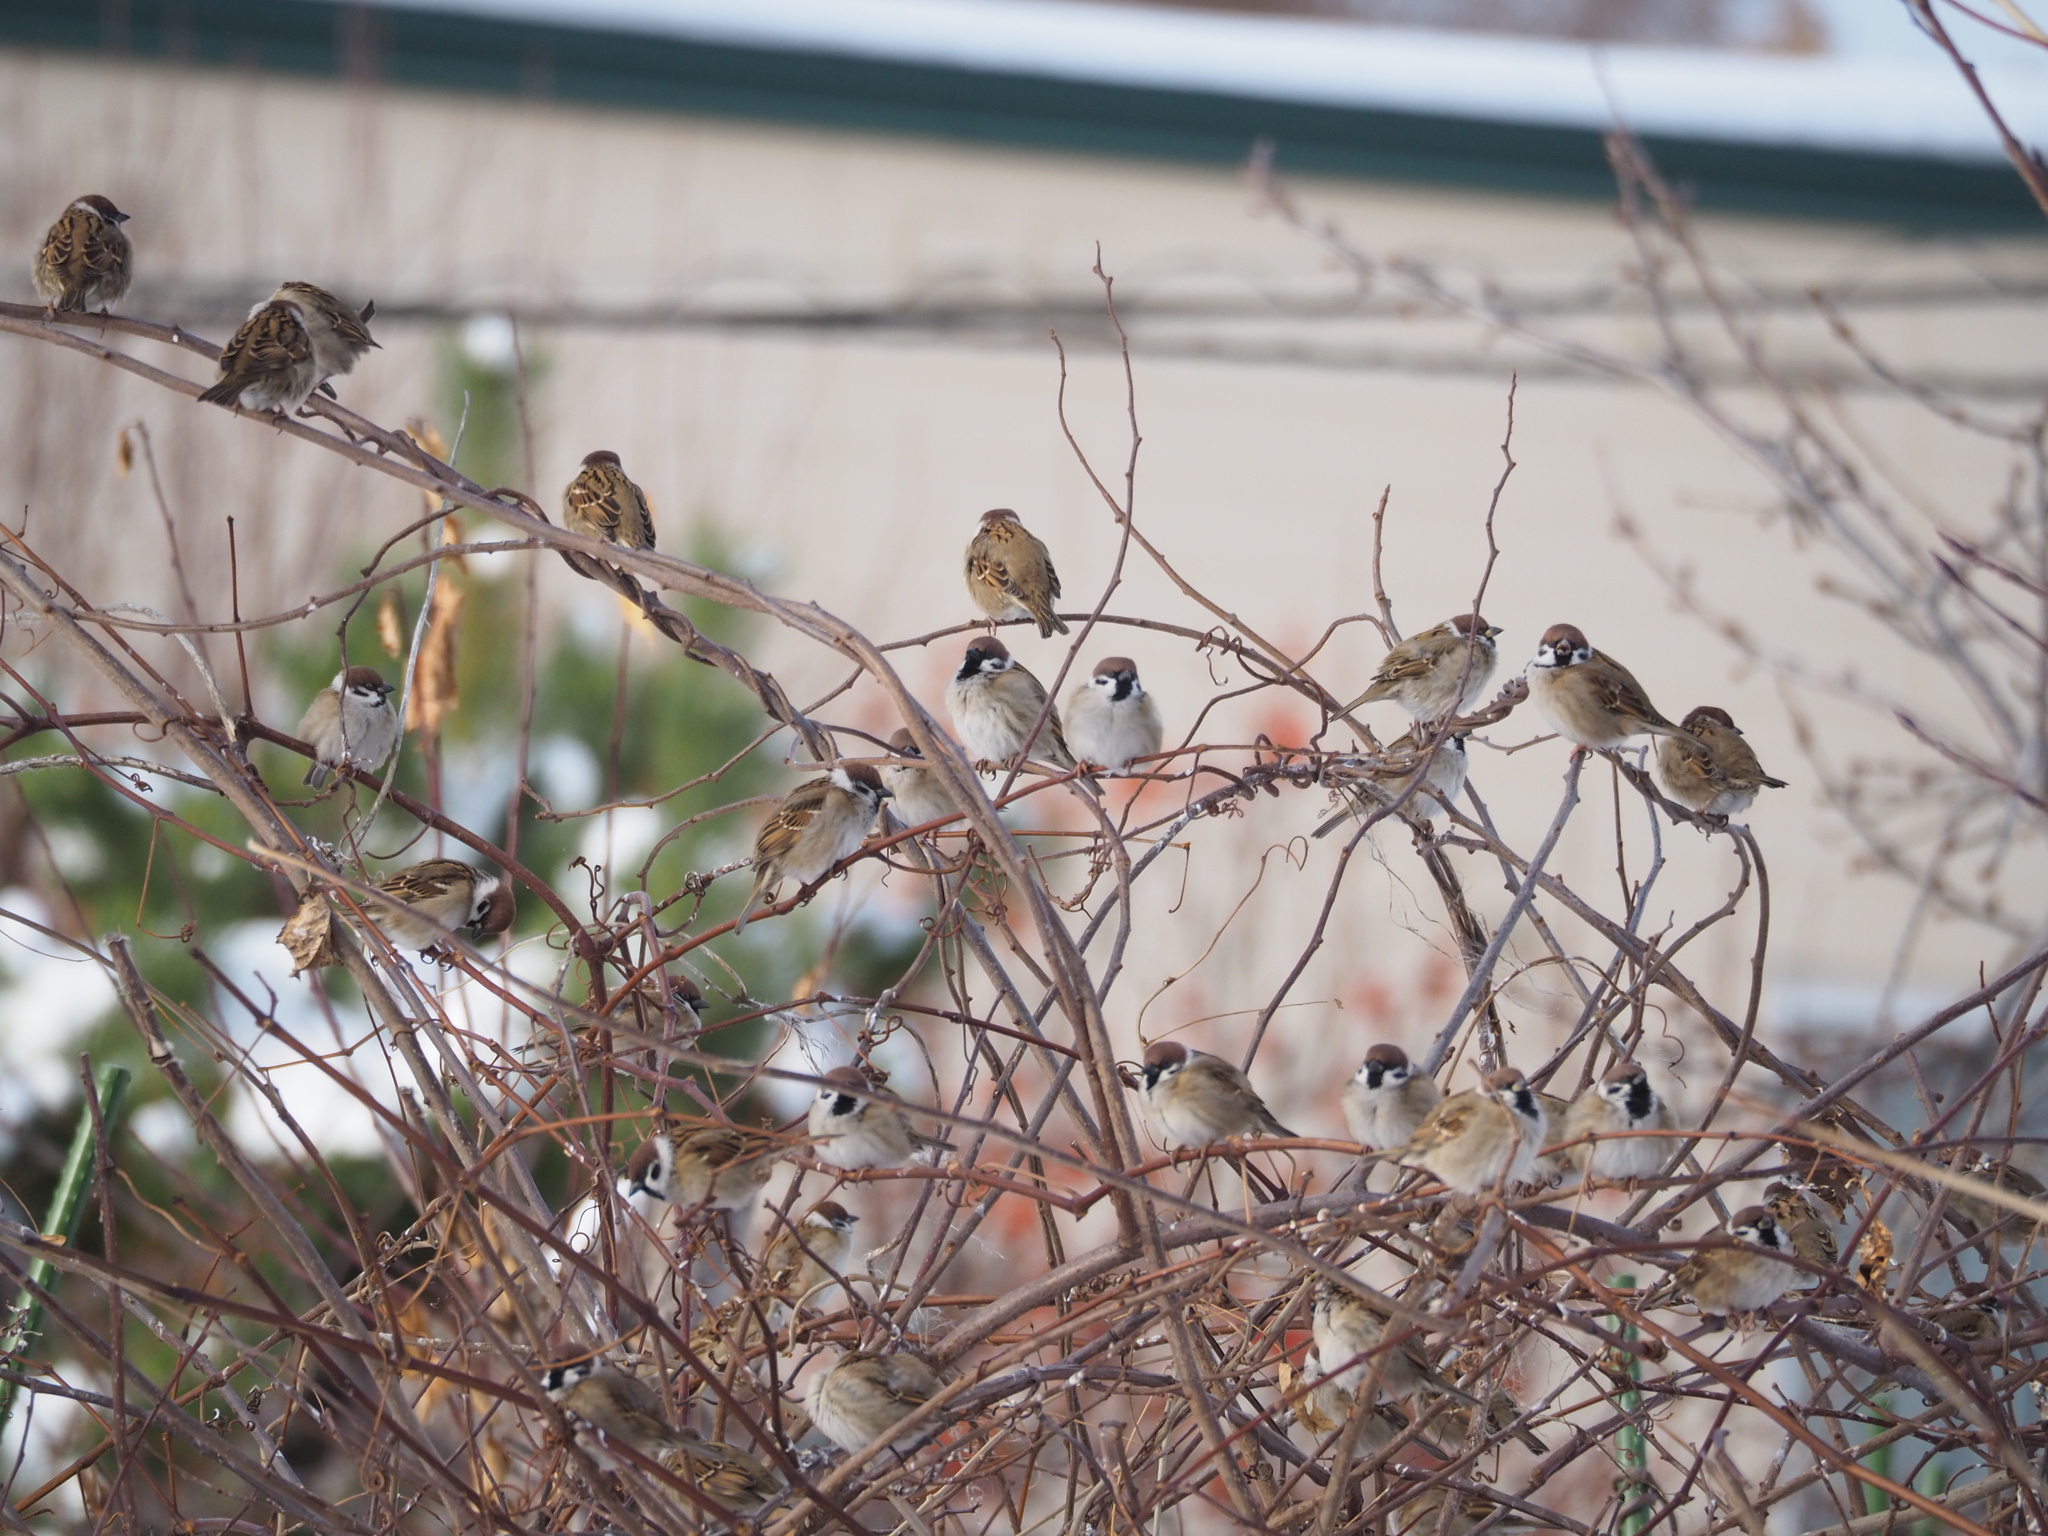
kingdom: Animalia
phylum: Chordata
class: Aves
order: Passeriformes
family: Passeridae
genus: Passer
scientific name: Passer montanus
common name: Eurasian tree sparrow
